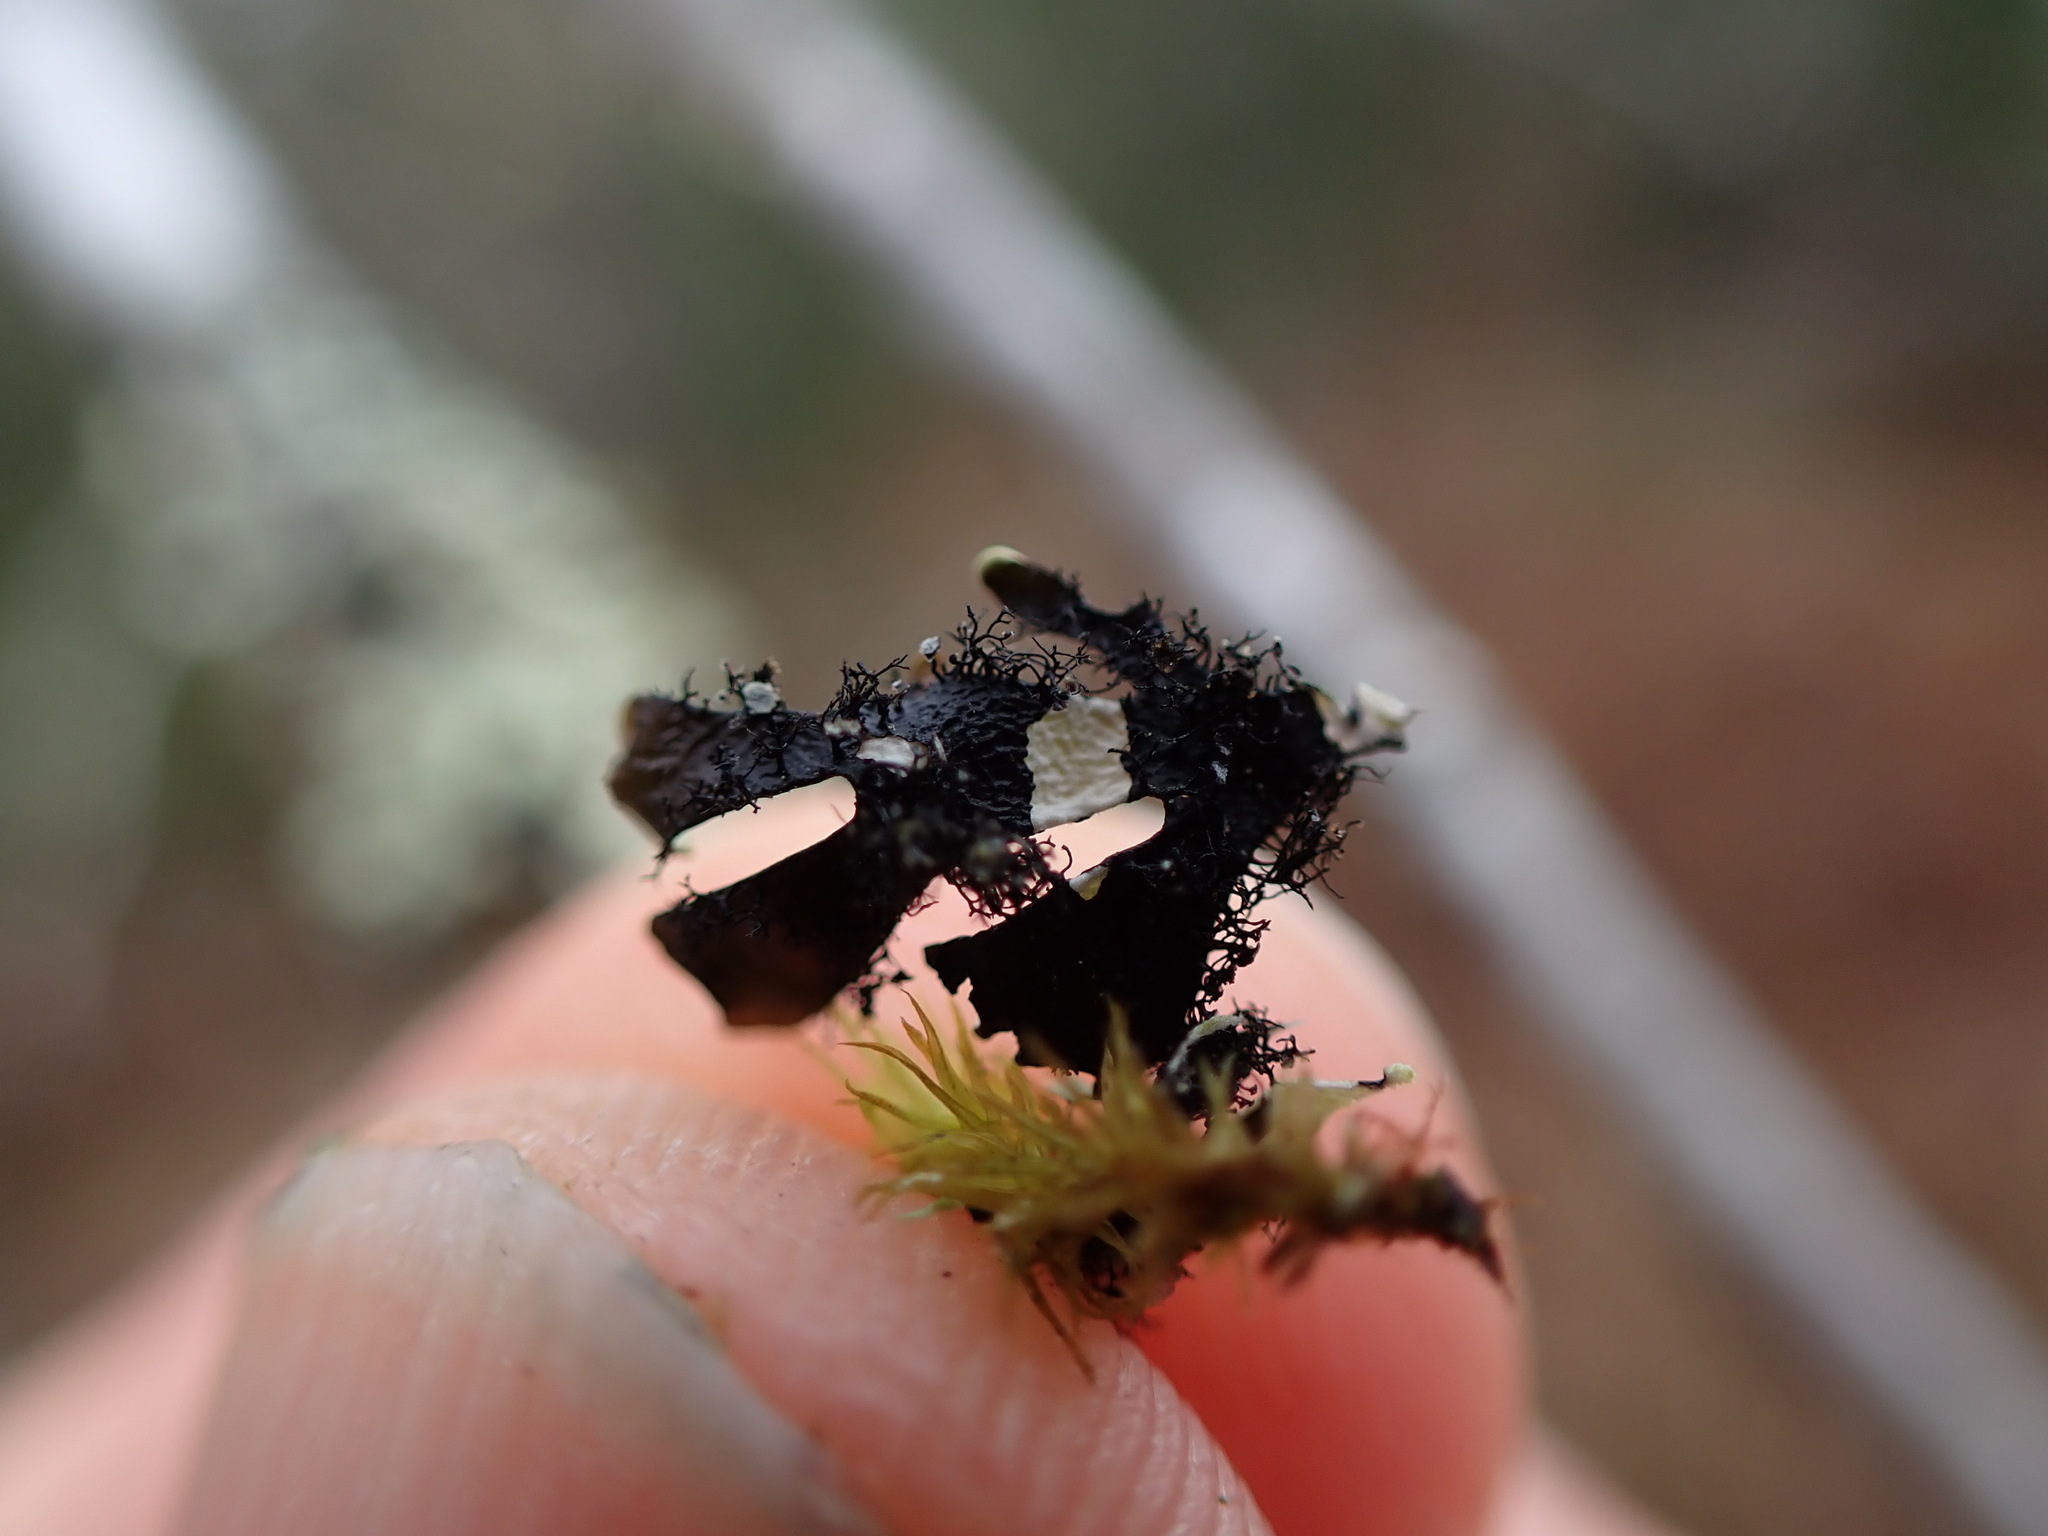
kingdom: Fungi
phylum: Ascomycota
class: Lecanoromycetes
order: Lecanorales
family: Parmeliaceae
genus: Hypotrachyna
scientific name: Hypotrachyna sinuosa
